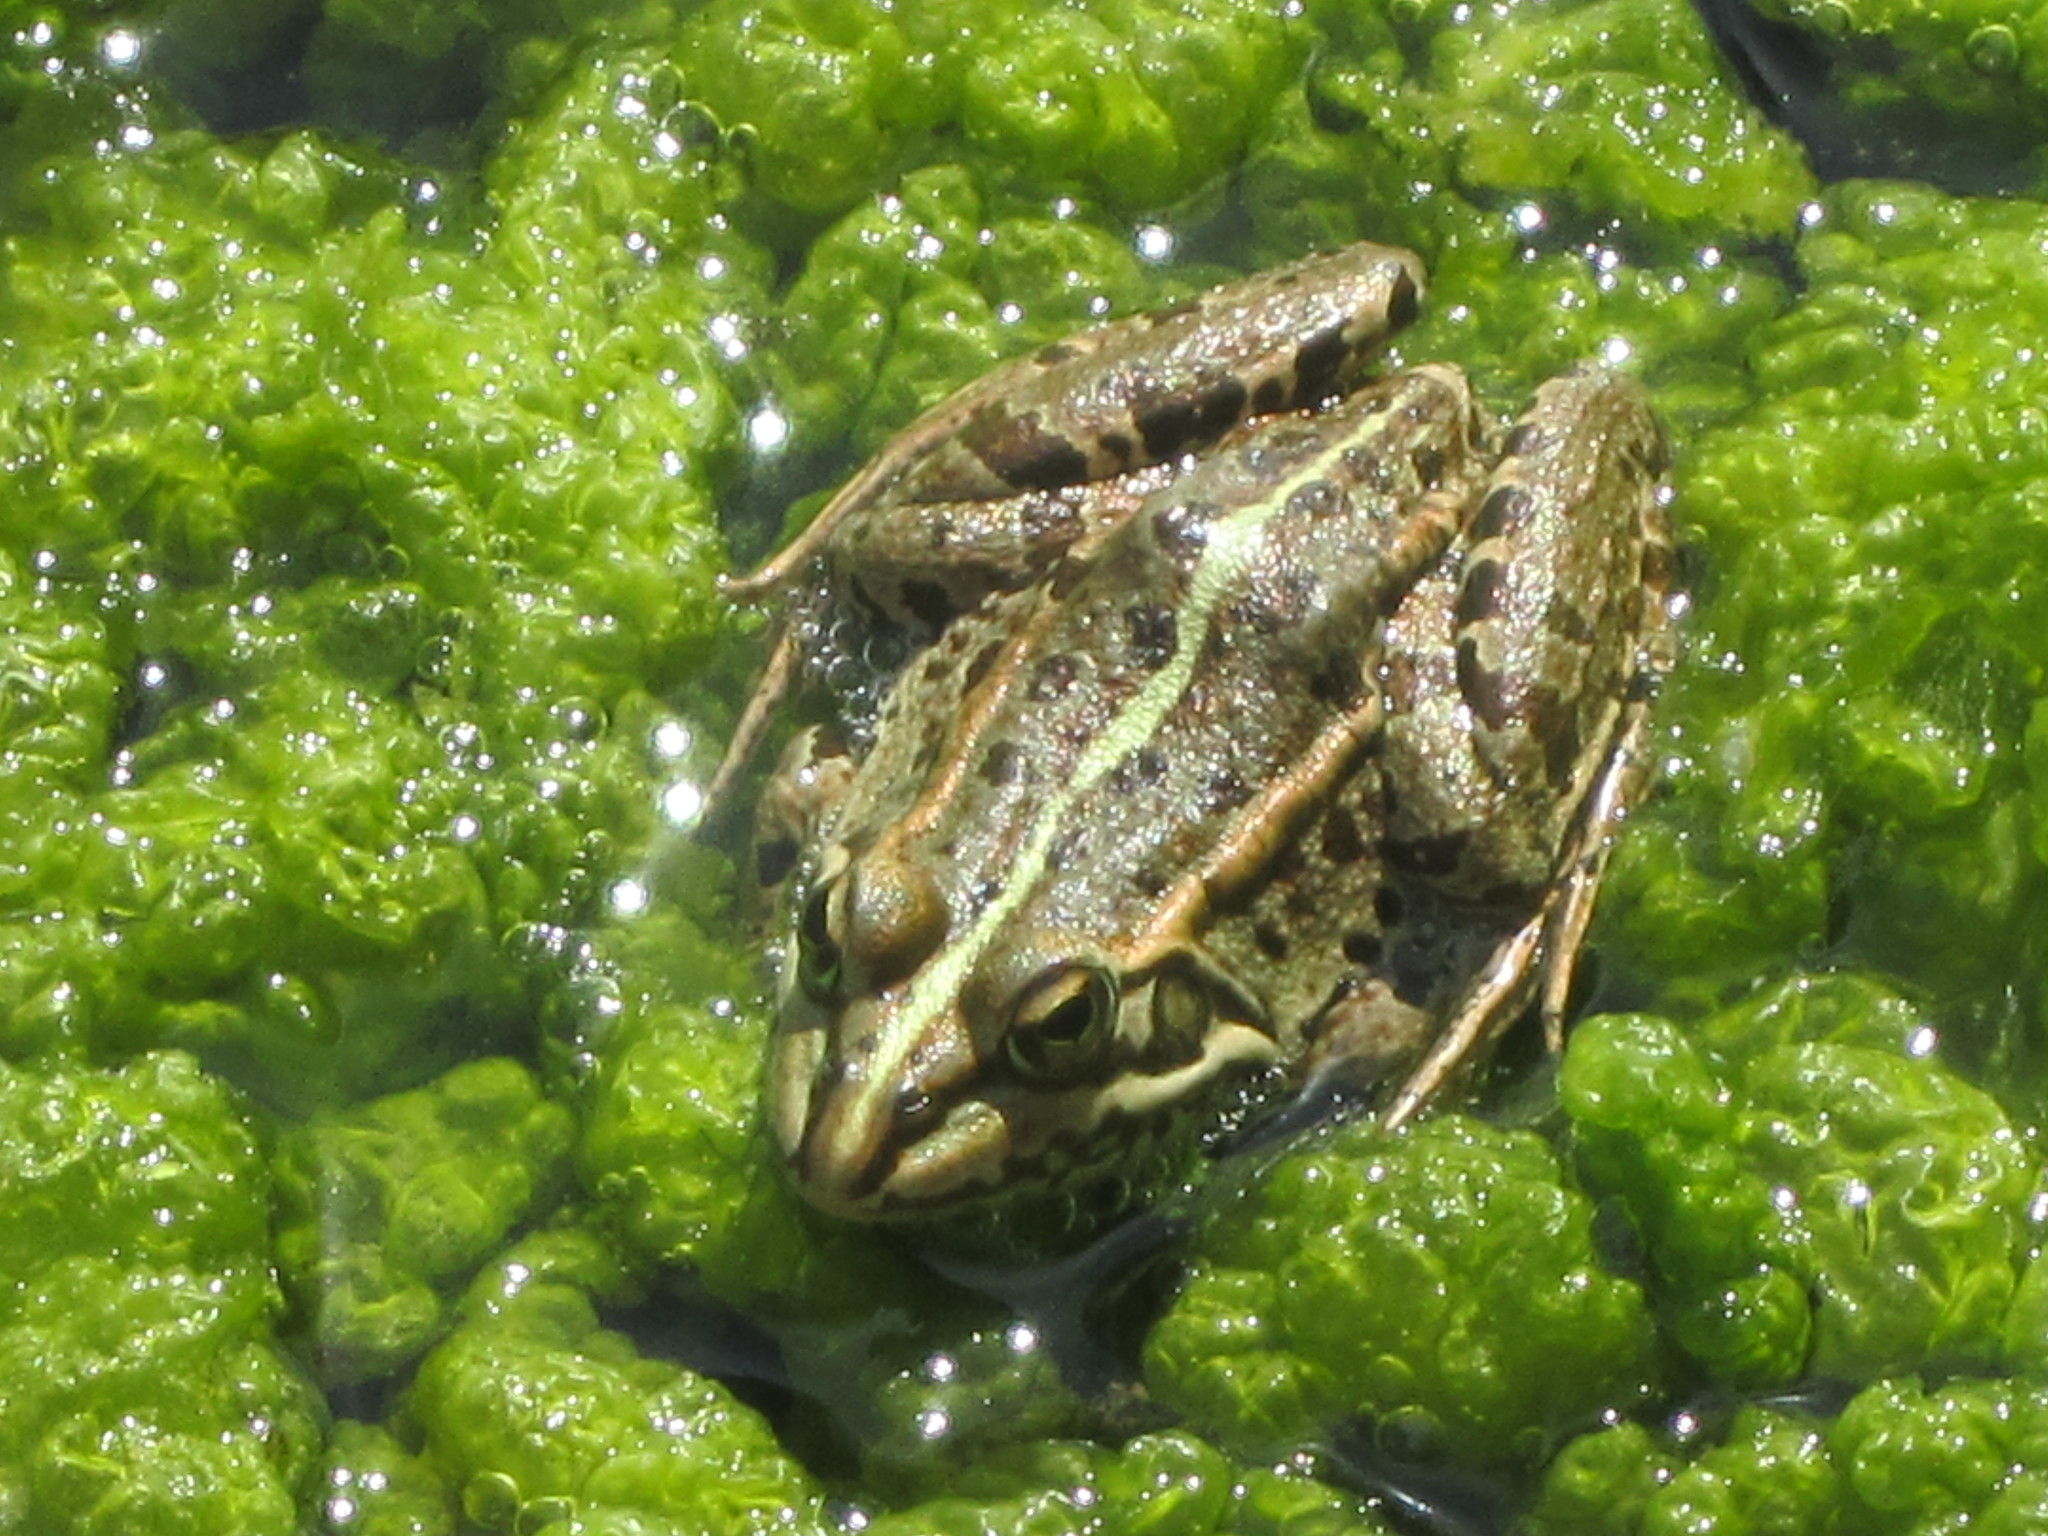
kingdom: Animalia
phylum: Chordata
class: Amphibia
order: Anura
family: Ranidae
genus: Pelophylax
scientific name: Pelophylax perezi
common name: Perez's frog
